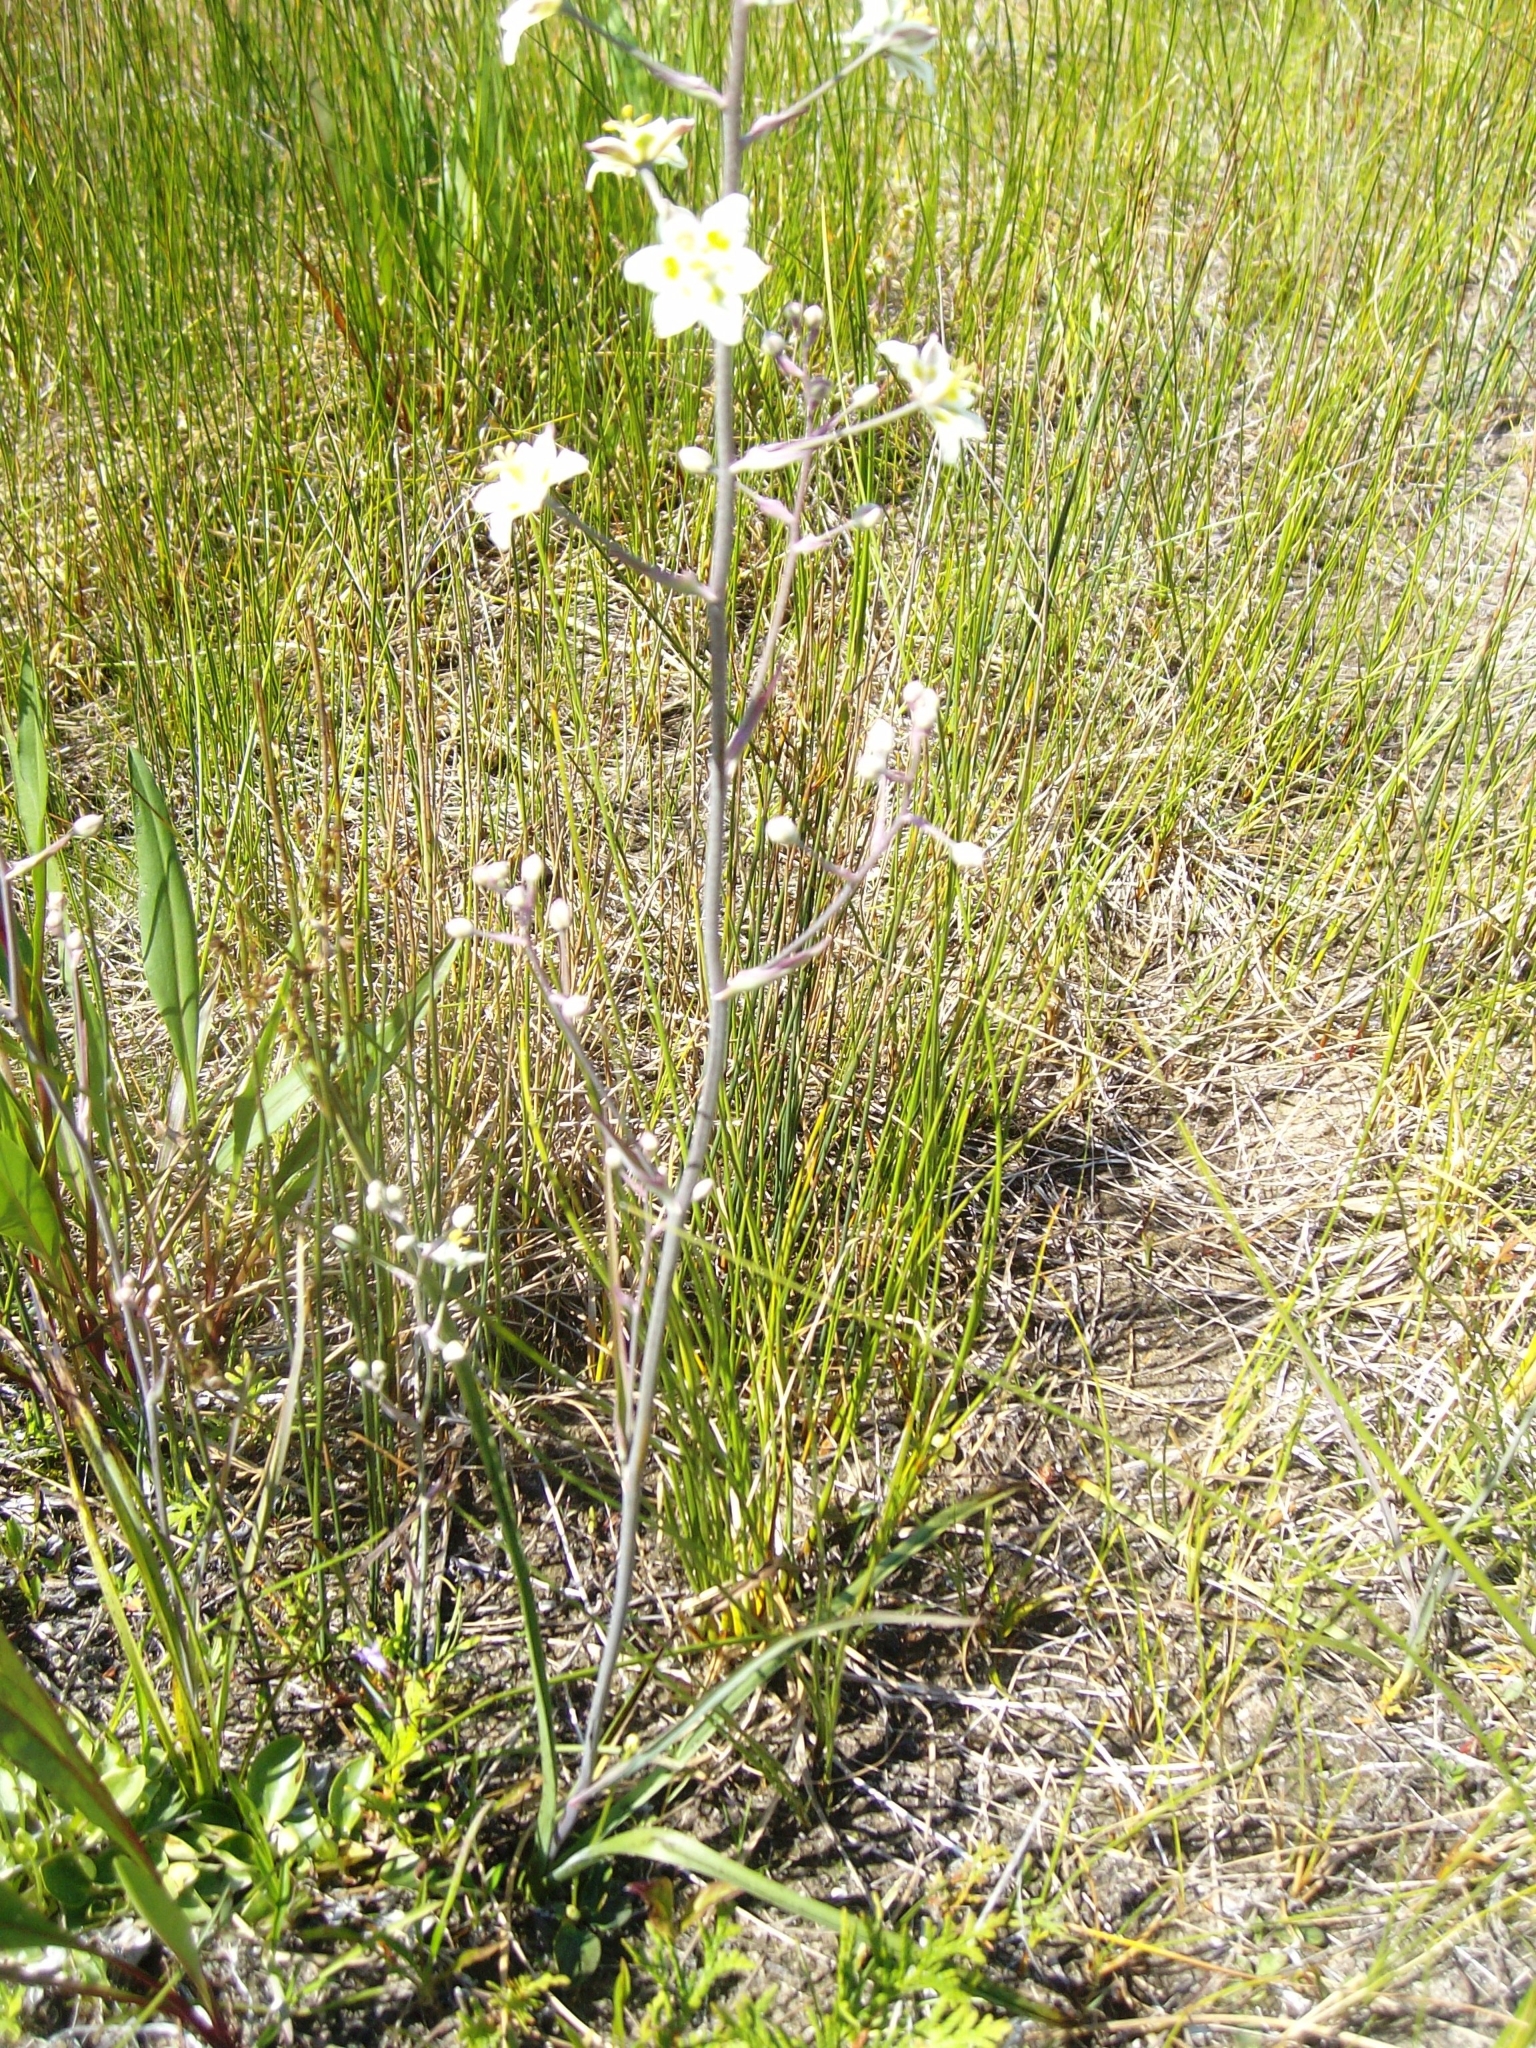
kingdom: Plantae
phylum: Tracheophyta
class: Liliopsida
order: Liliales
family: Melanthiaceae
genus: Anticlea
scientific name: Anticlea elegans
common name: Mountain death camas
